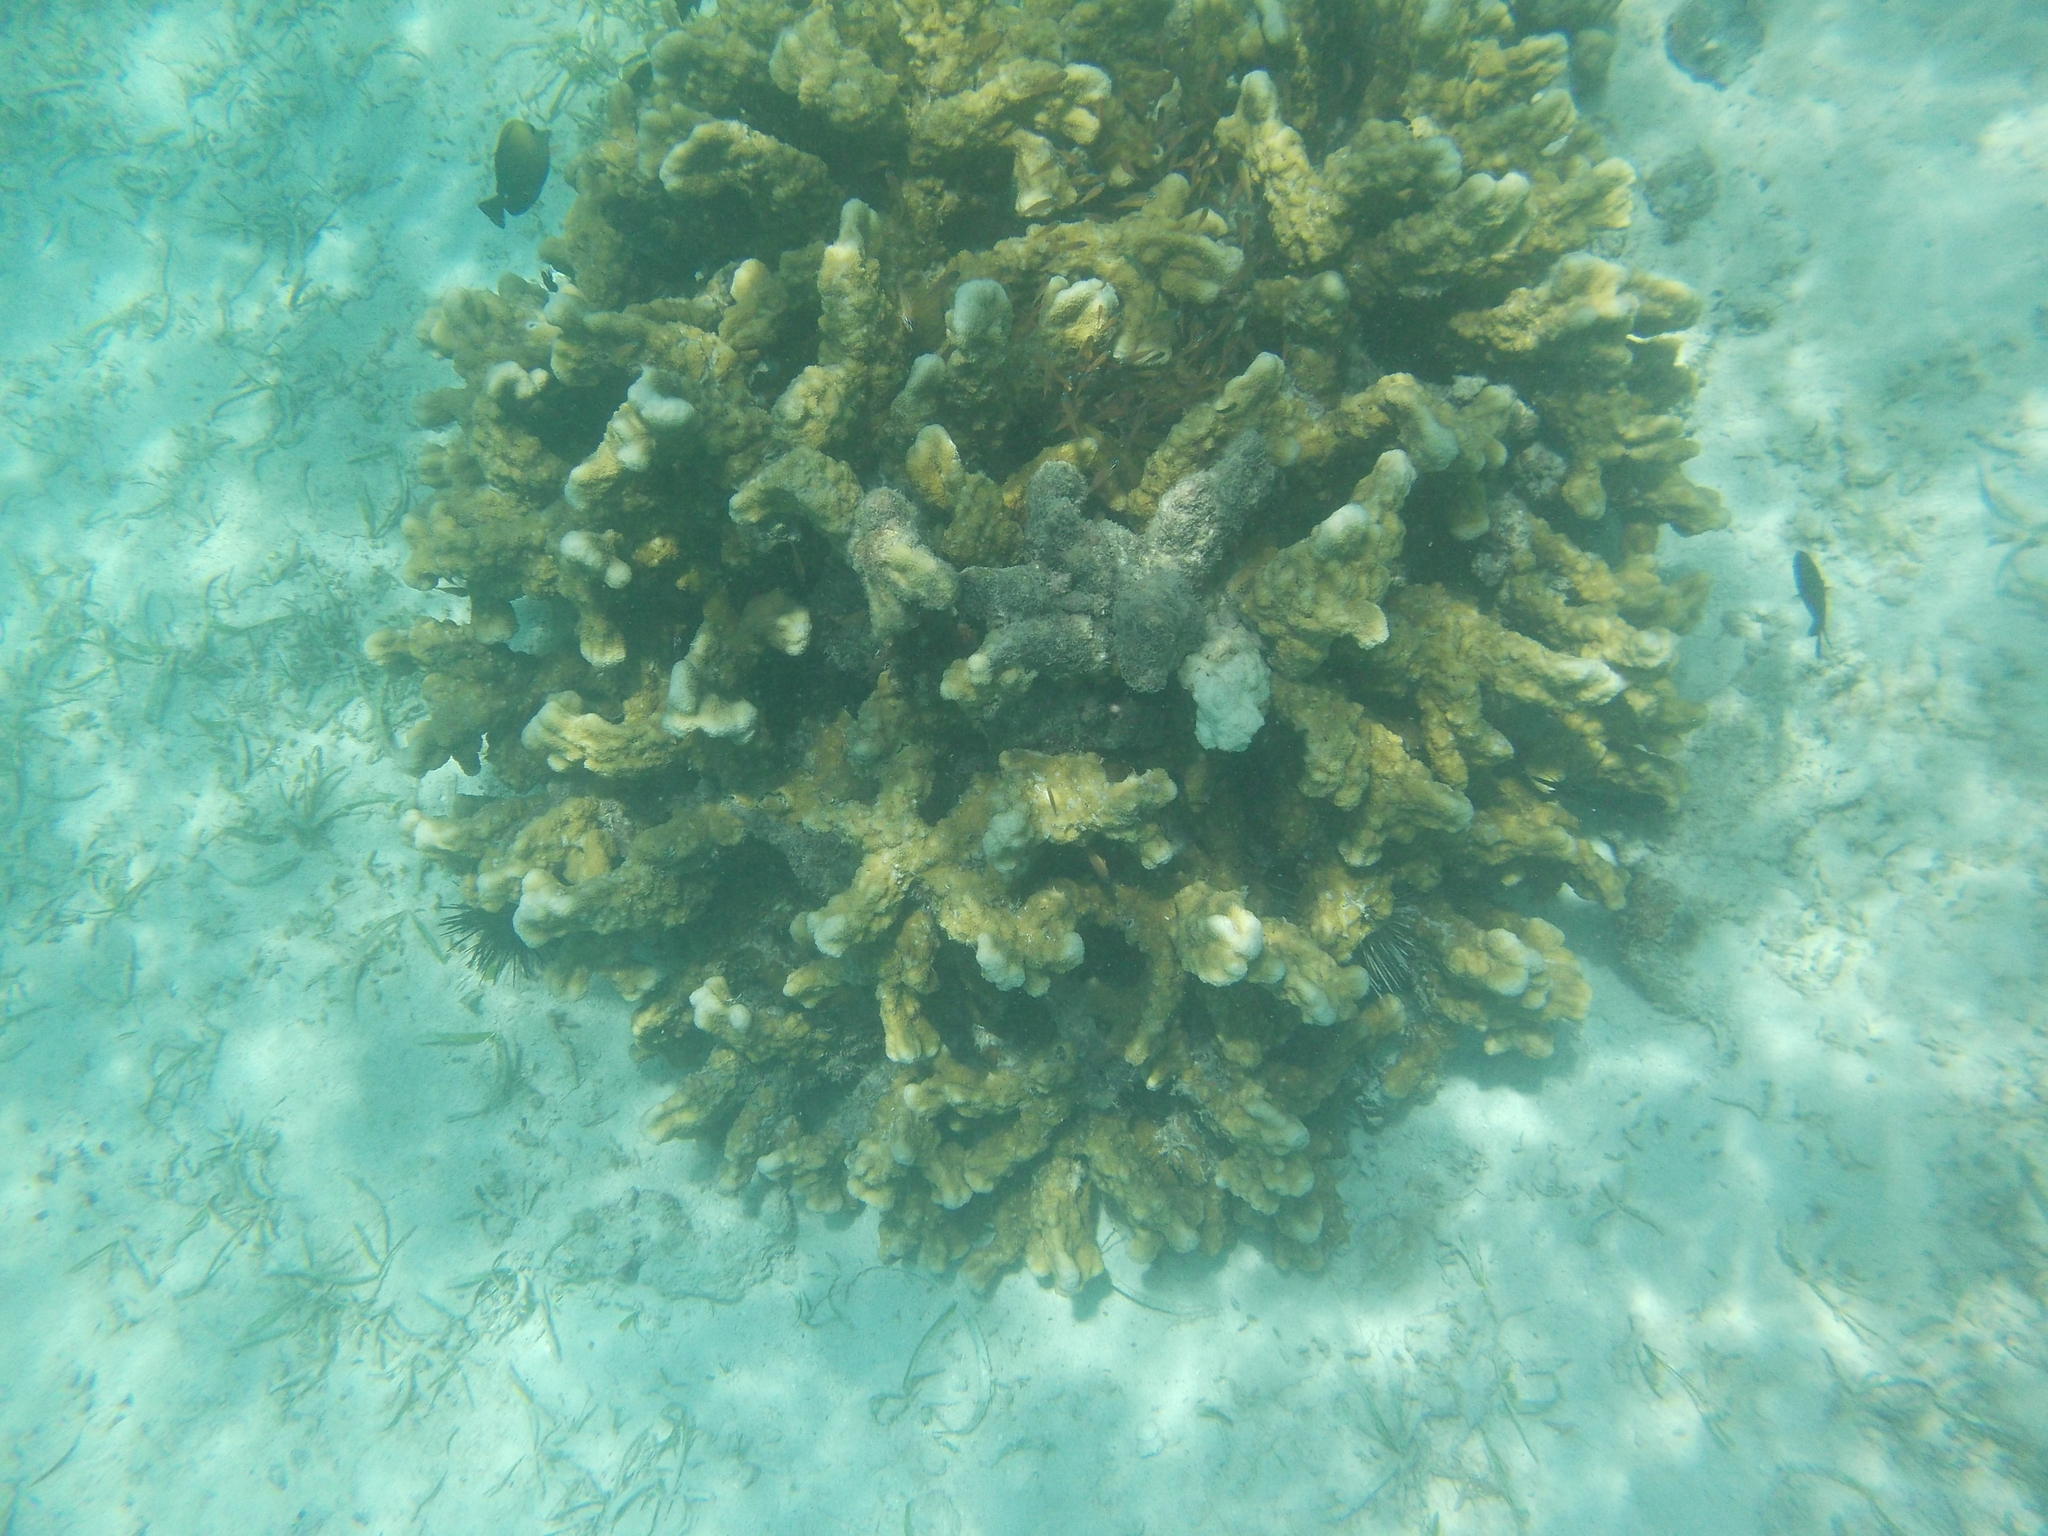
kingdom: Animalia
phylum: Cnidaria
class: Anthozoa
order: Scleractinia
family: Acroporidae
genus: Isopora
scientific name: Isopora palifera
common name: Catch bowl coral
